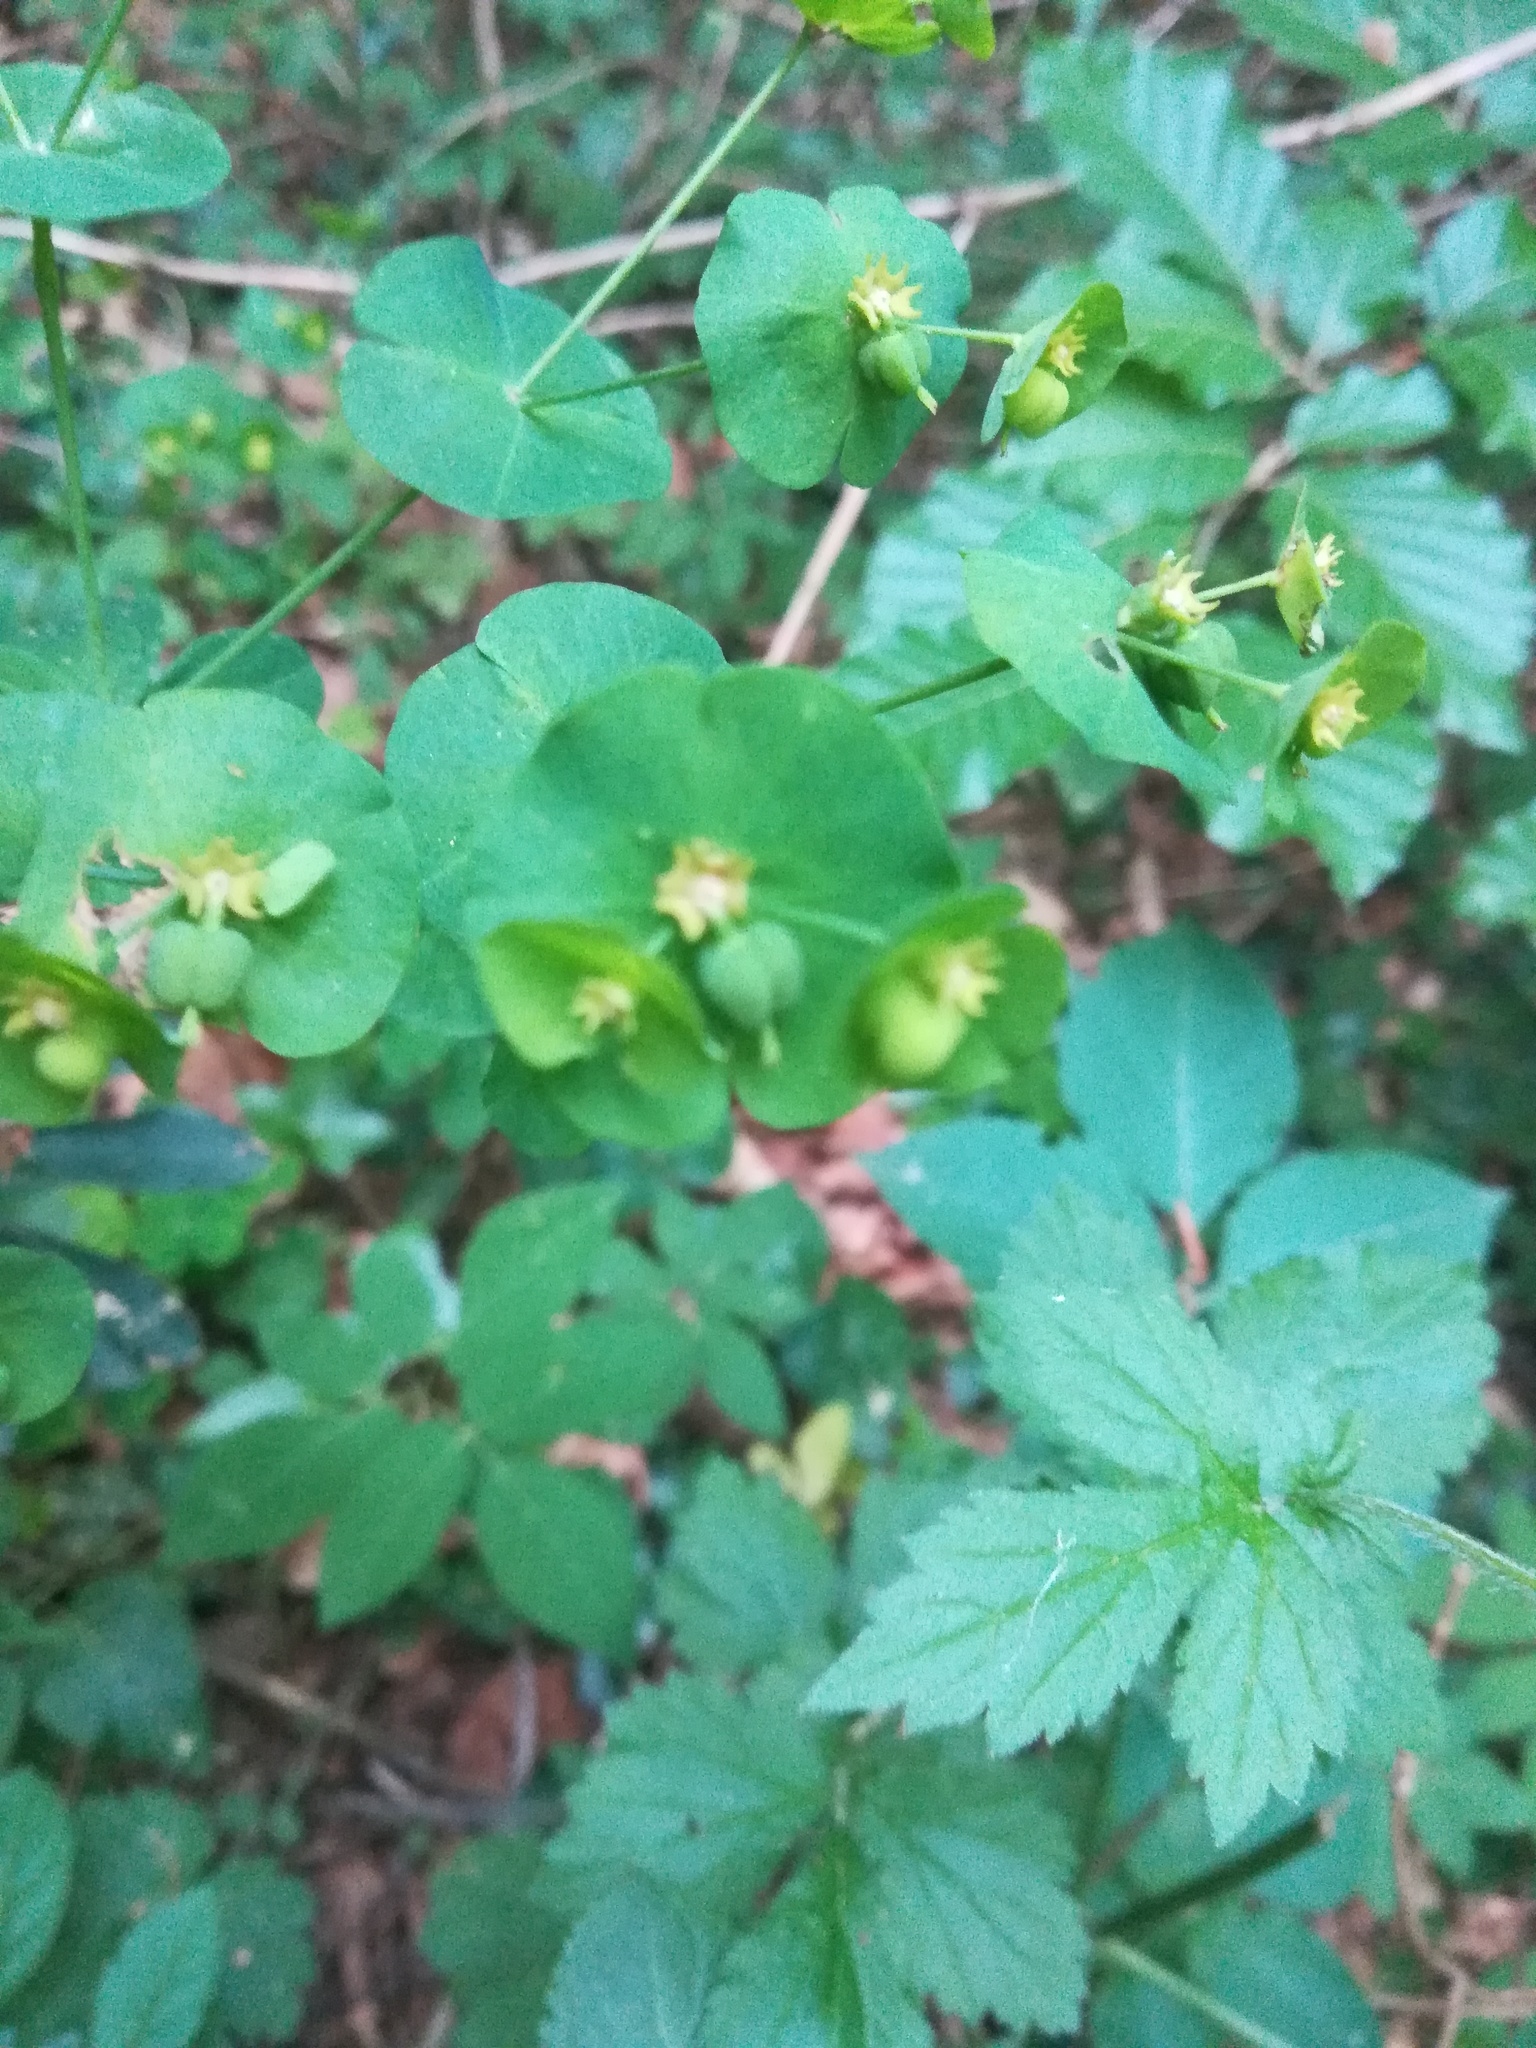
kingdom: Plantae
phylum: Tracheophyta
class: Magnoliopsida
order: Malpighiales
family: Euphorbiaceae
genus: Euphorbia
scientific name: Euphorbia amygdaloides
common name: Wood spurge
